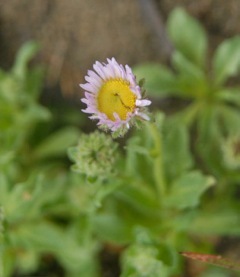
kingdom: Plantae
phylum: Tracheophyta
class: Magnoliopsida
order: Asterales
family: Asteraceae
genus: Erigeron
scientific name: Erigeron glaucus
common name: Seaside daisy
